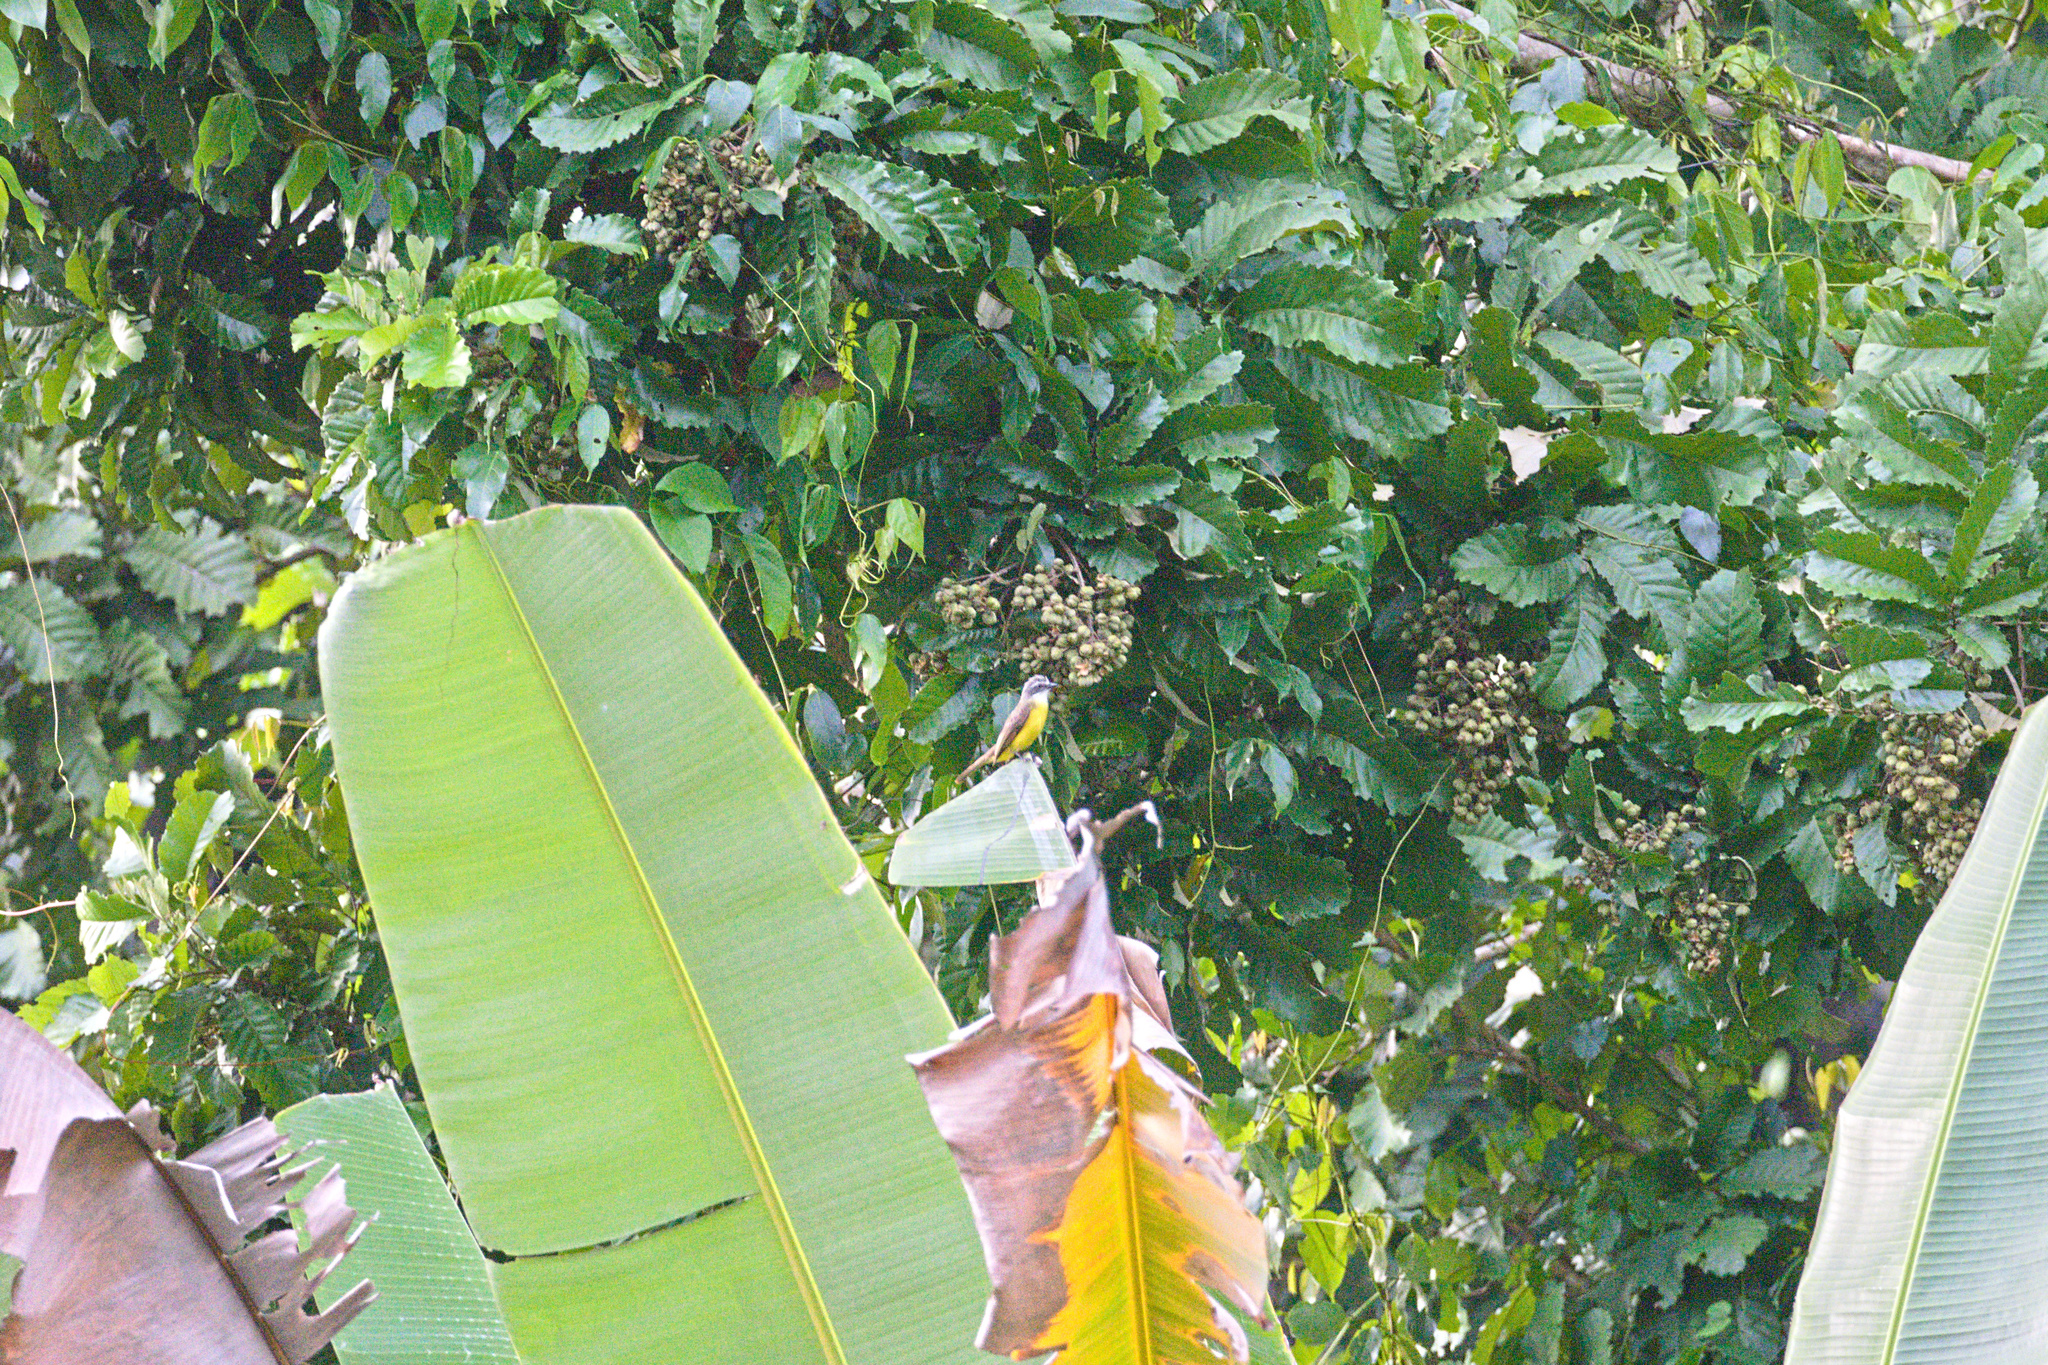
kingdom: Animalia
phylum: Chordata
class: Aves
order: Passeriformes
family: Tyrannidae
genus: Myiozetetes
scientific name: Myiozetetes granadensis
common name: Gray-capped flycatcher
